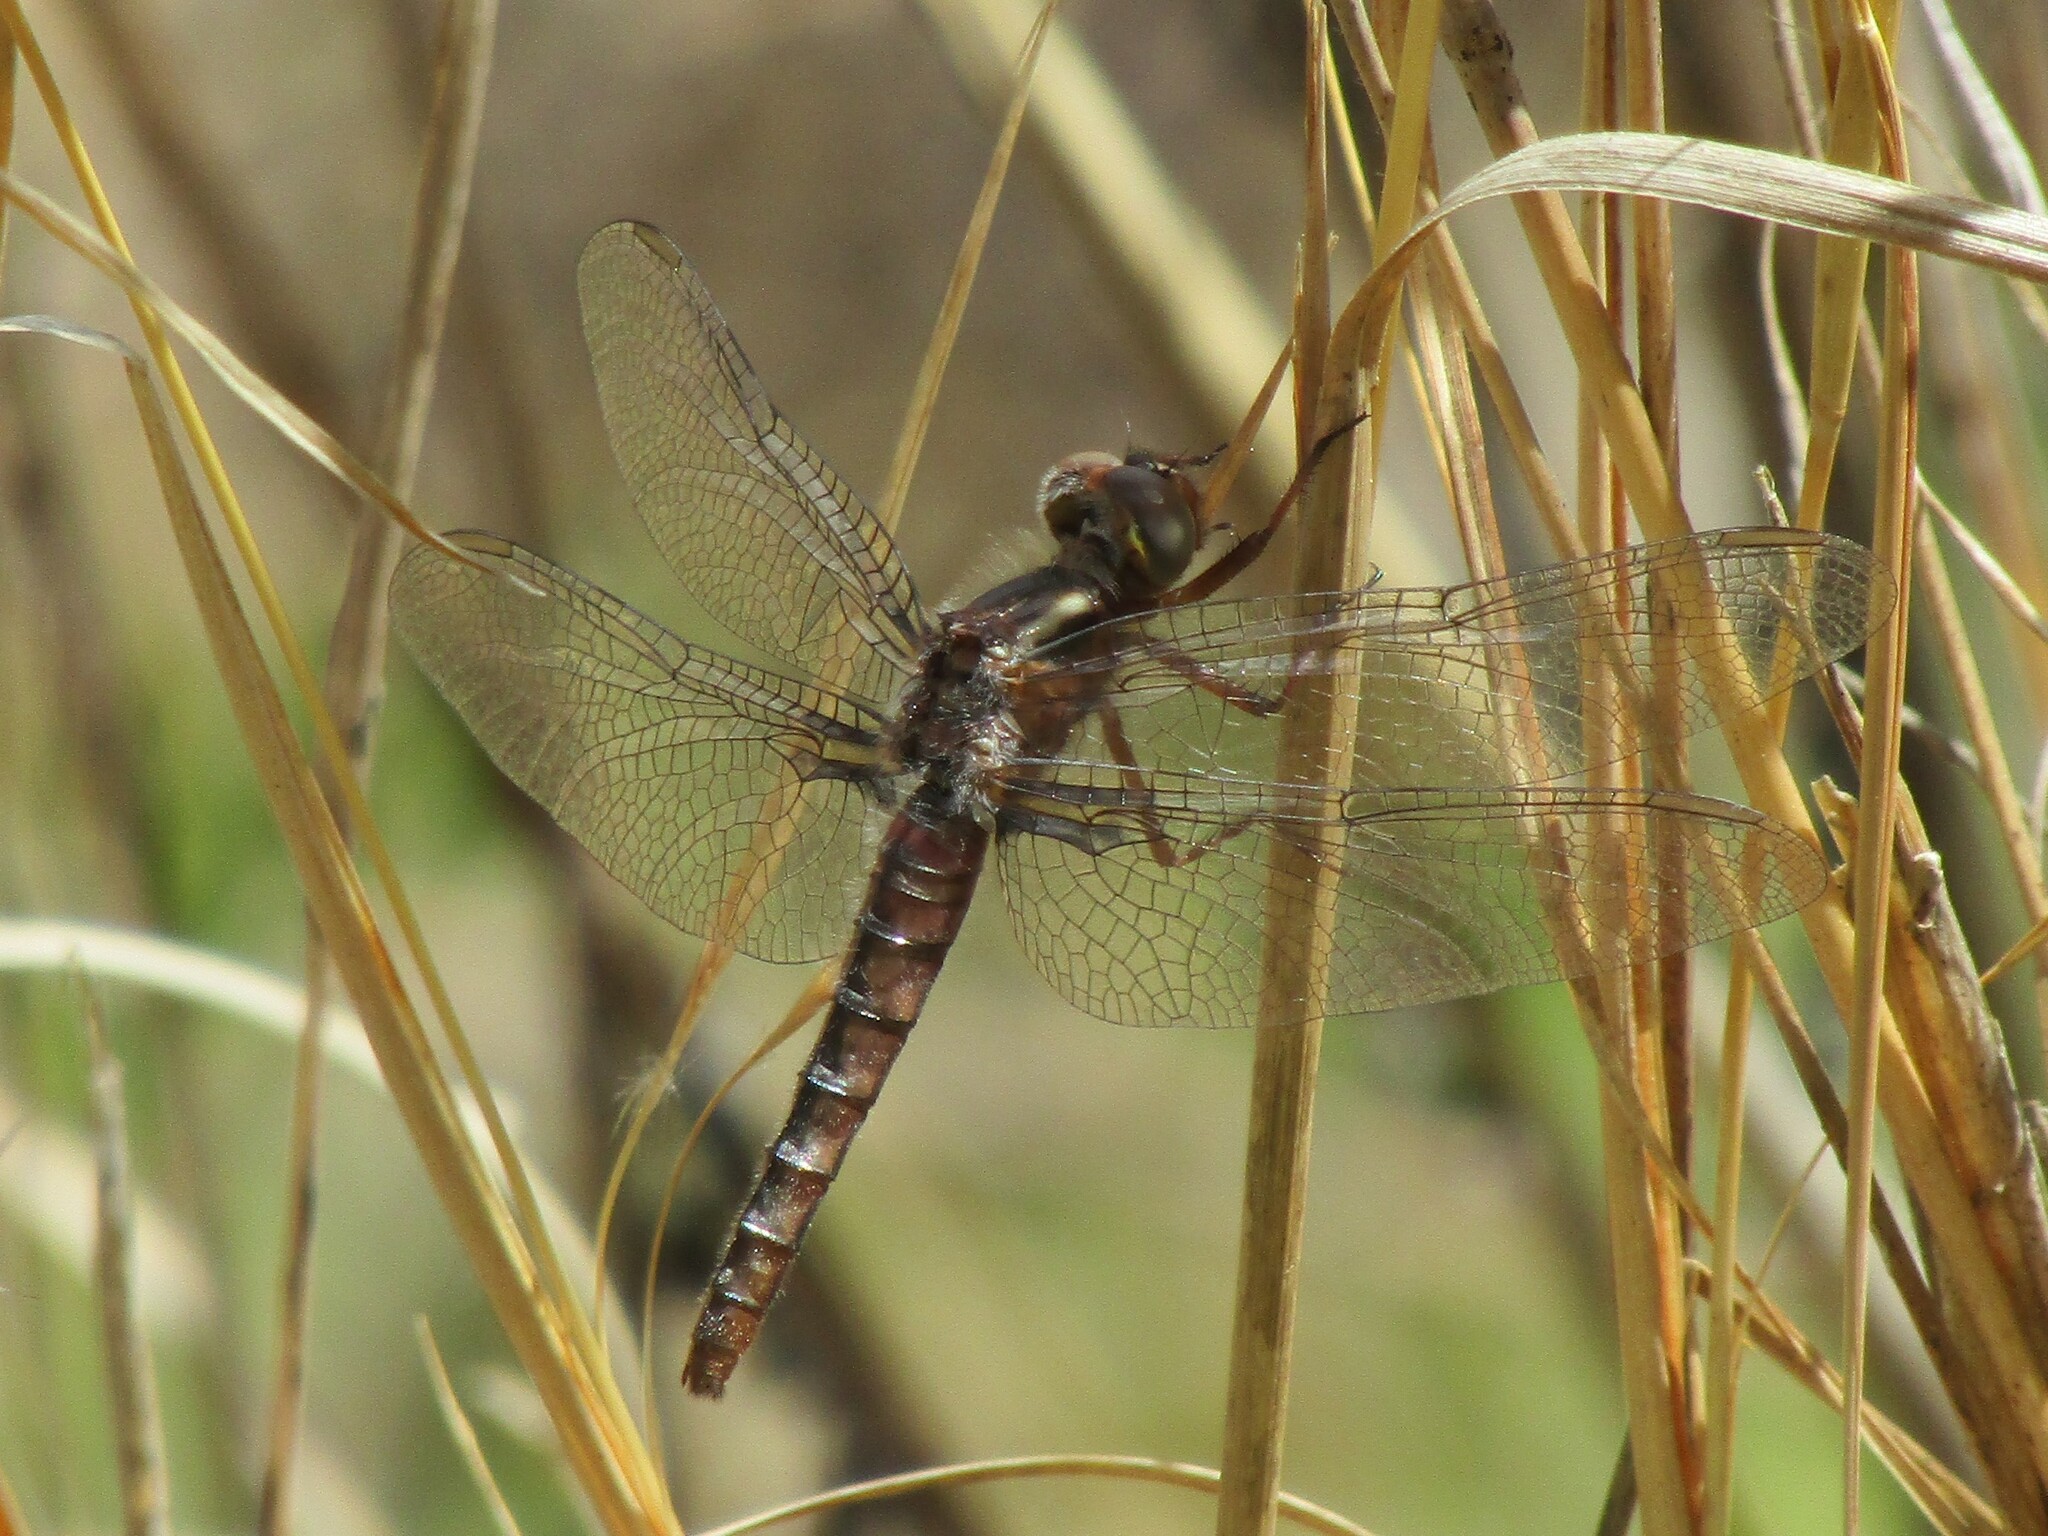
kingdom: Animalia
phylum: Arthropoda
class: Insecta
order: Odonata
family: Libellulidae
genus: Ladona
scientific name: Ladona deplanata
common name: Blue corporal
